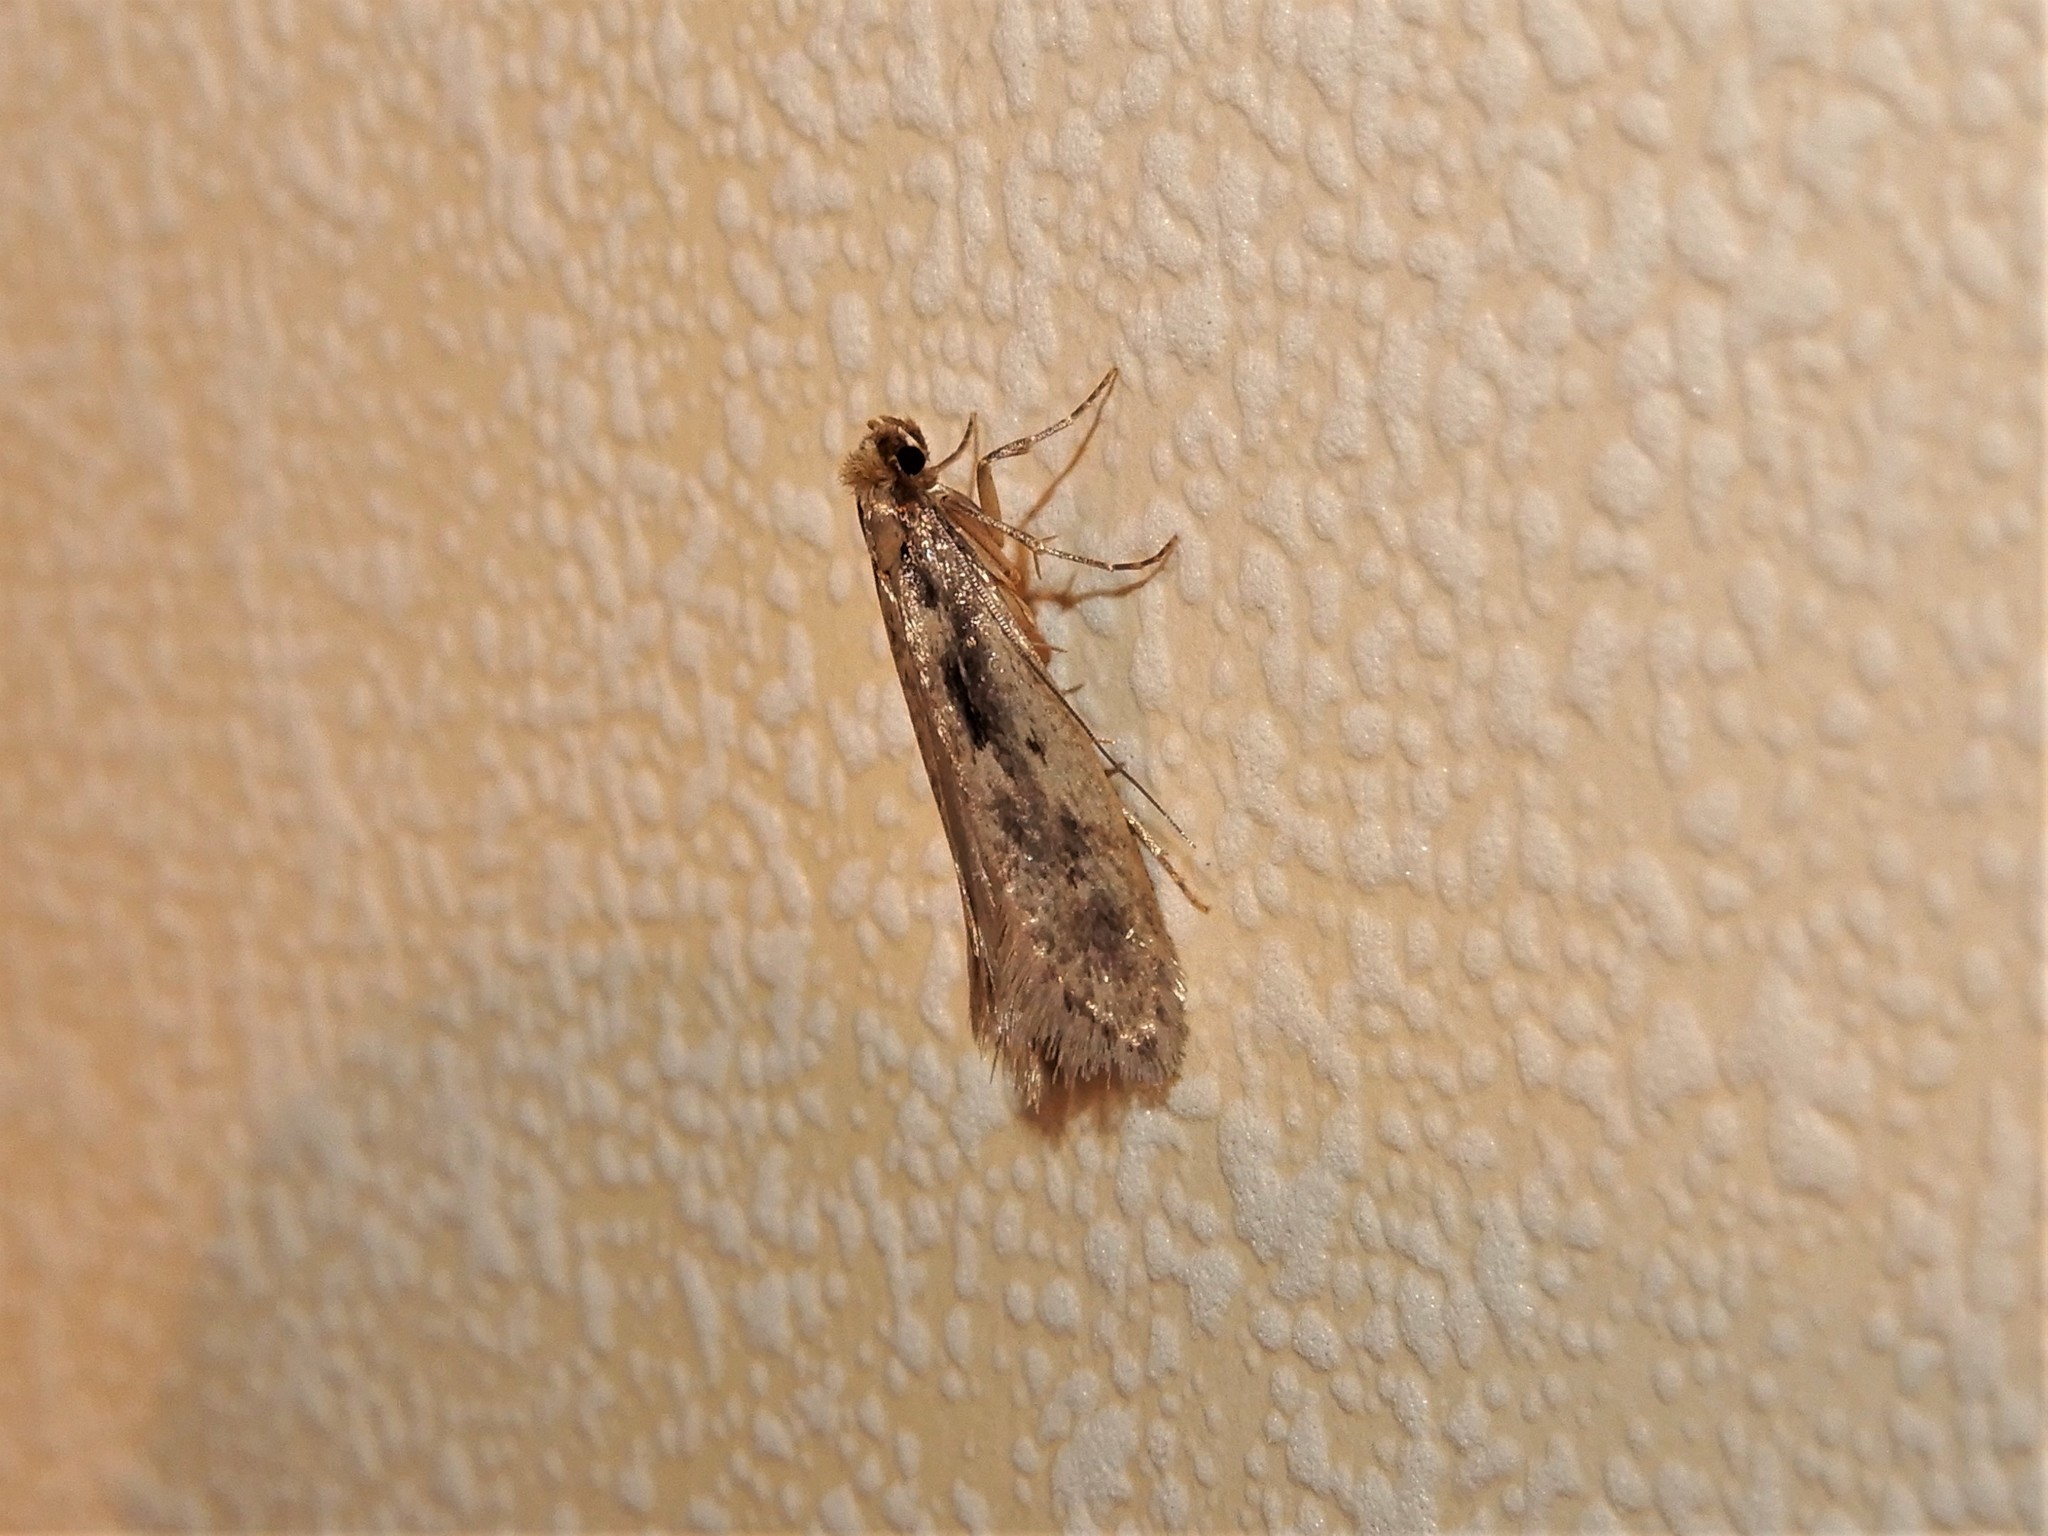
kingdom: Animalia
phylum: Arthropoda
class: Insecta
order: Lepidoptera
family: Tineidae
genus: Tinea
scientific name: Tinea pallescentella
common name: Large pale clothes moth
